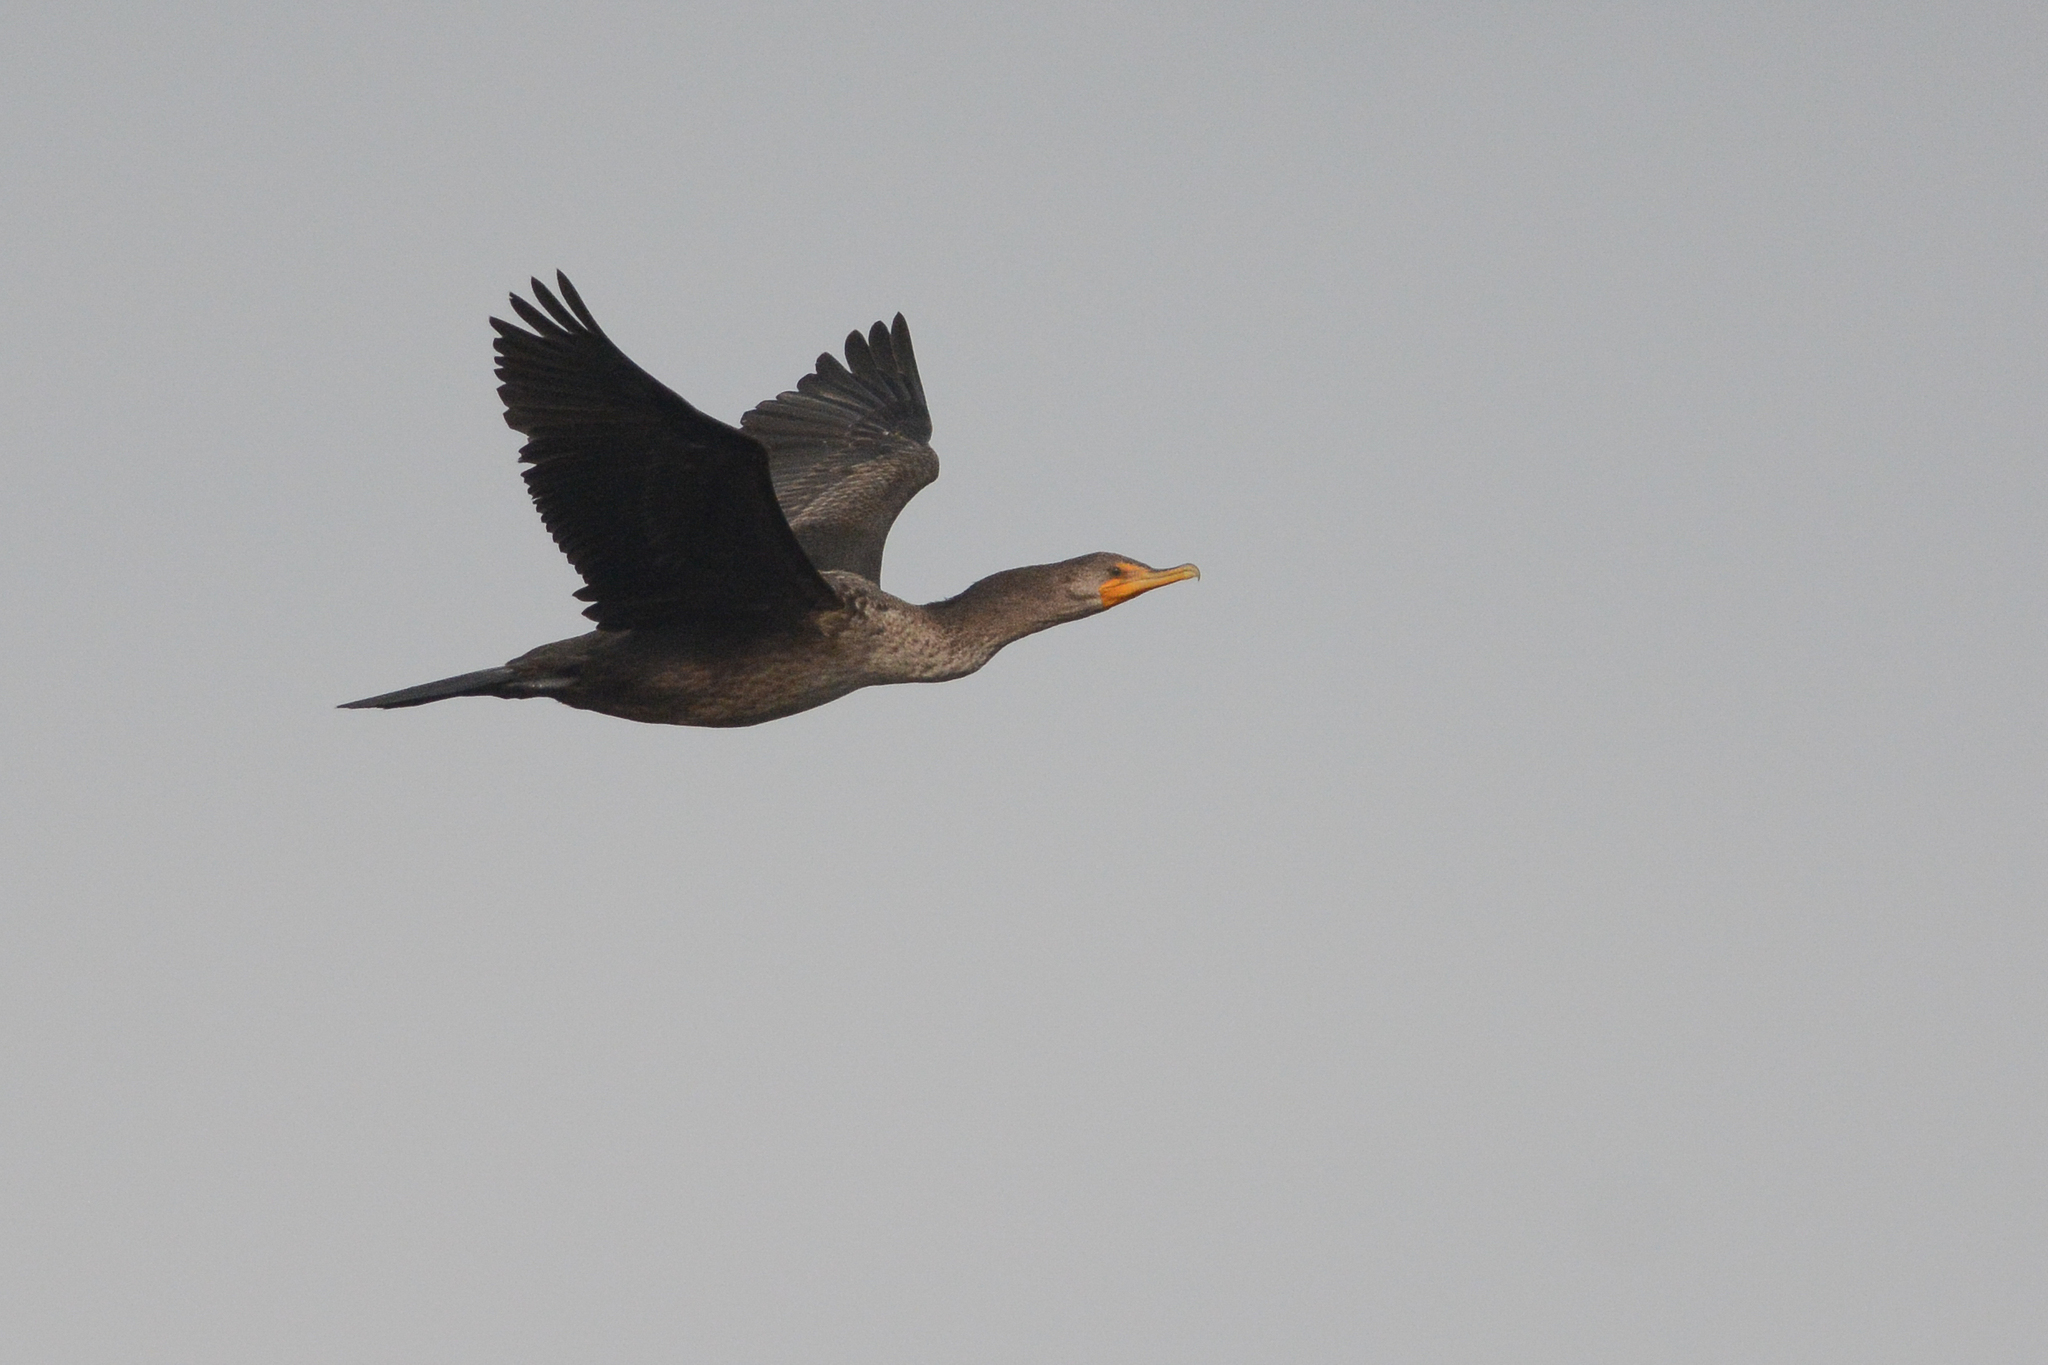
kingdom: Animalia
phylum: Chordata
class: Aves
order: Suliformes
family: Phalacrocoracidae
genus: Phalacrocorax
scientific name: Phalacrocorax auritus
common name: Double-crested cormorant
